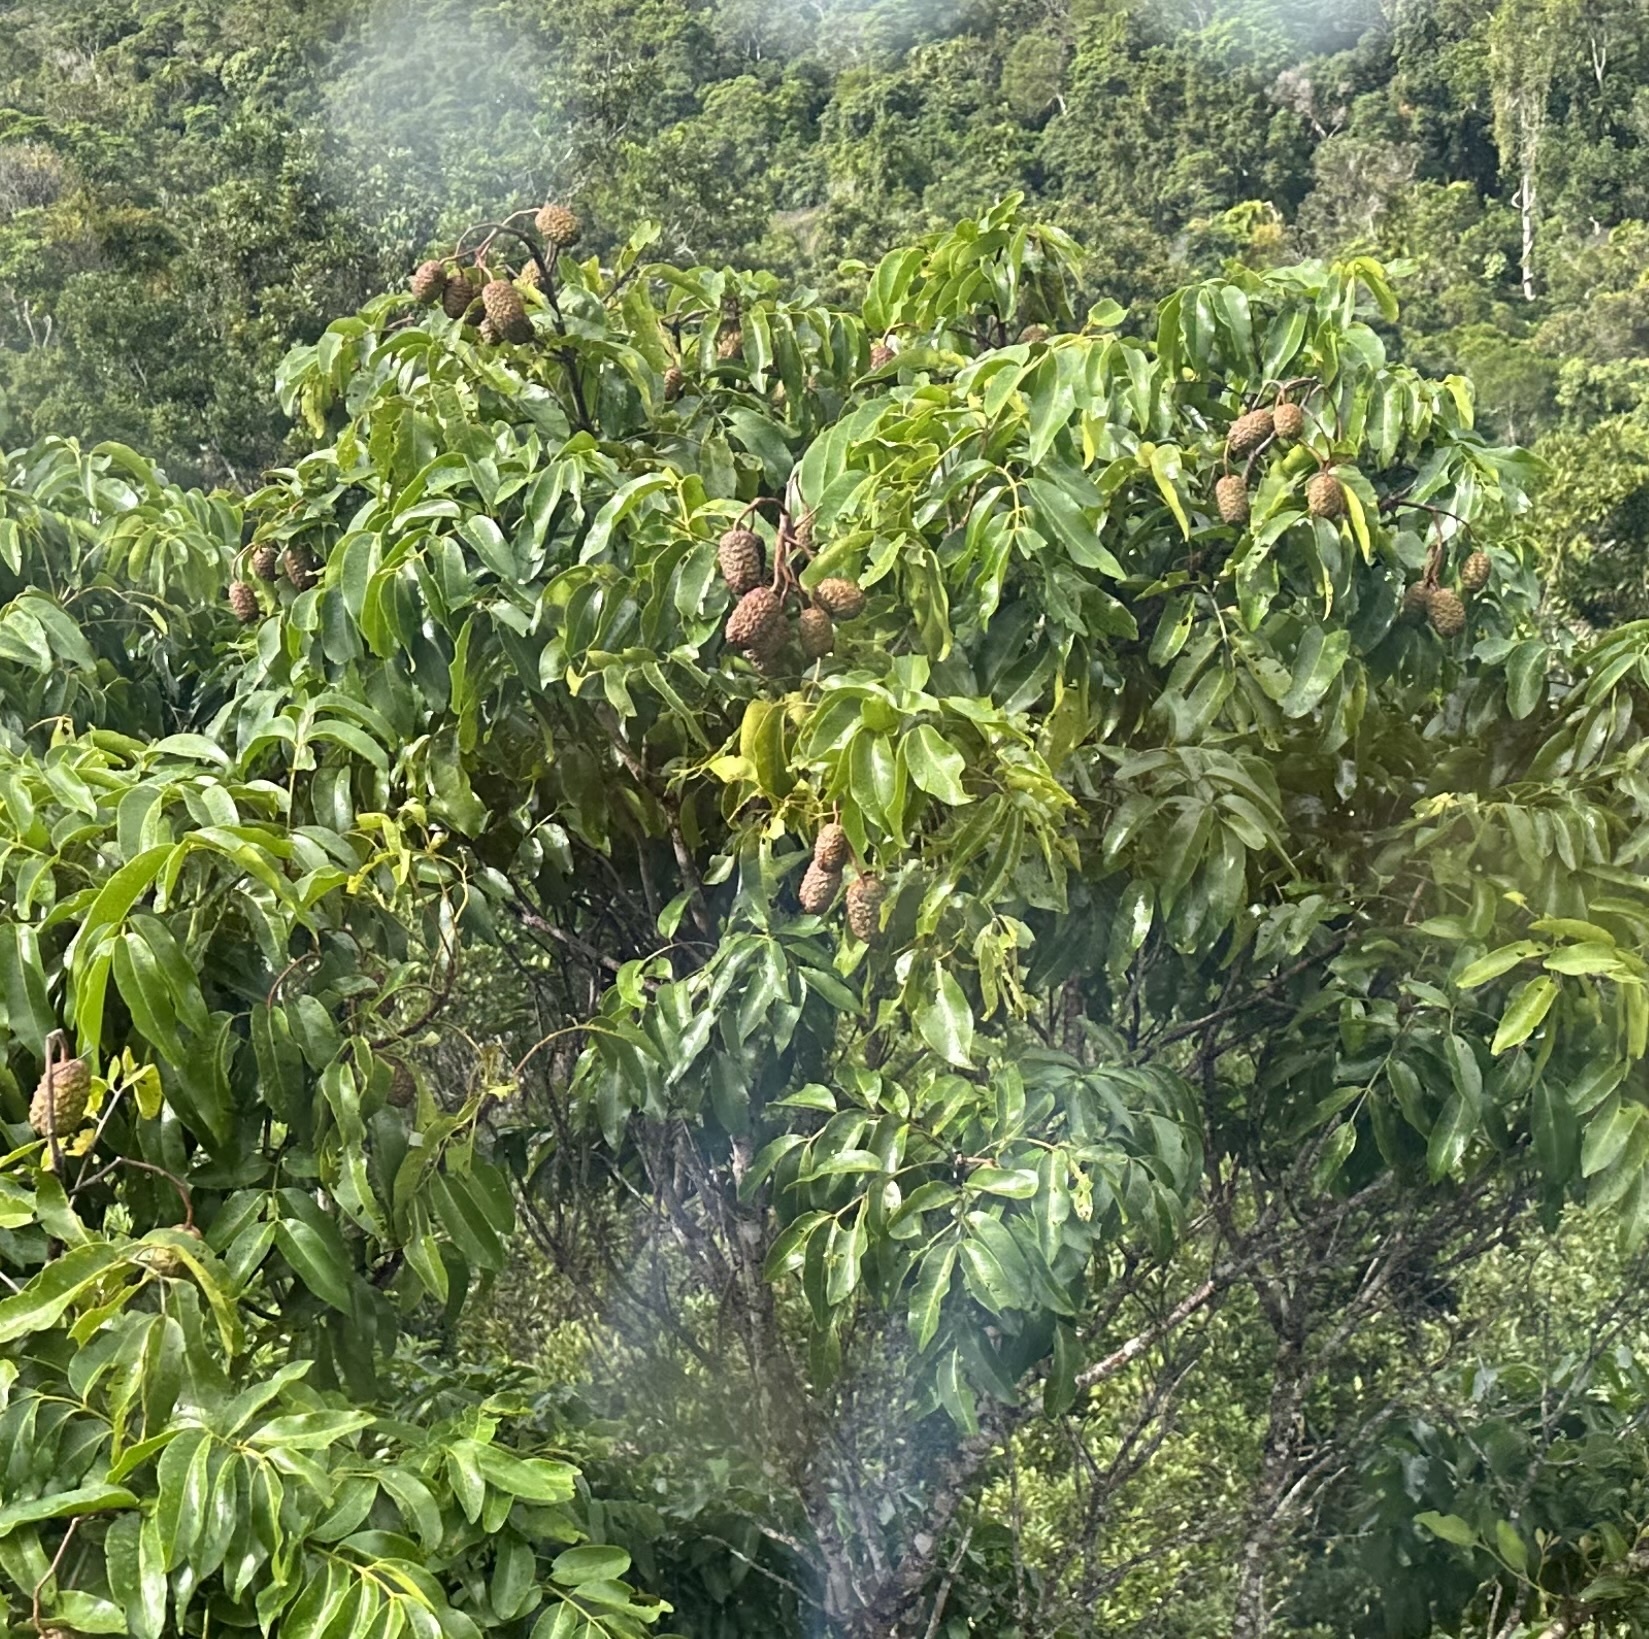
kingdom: Plantae
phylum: Tracheophyta
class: Magnoliopsida
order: Sapindales
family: Rutaceae
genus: Flindersia
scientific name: Flindersia bourjotiana
